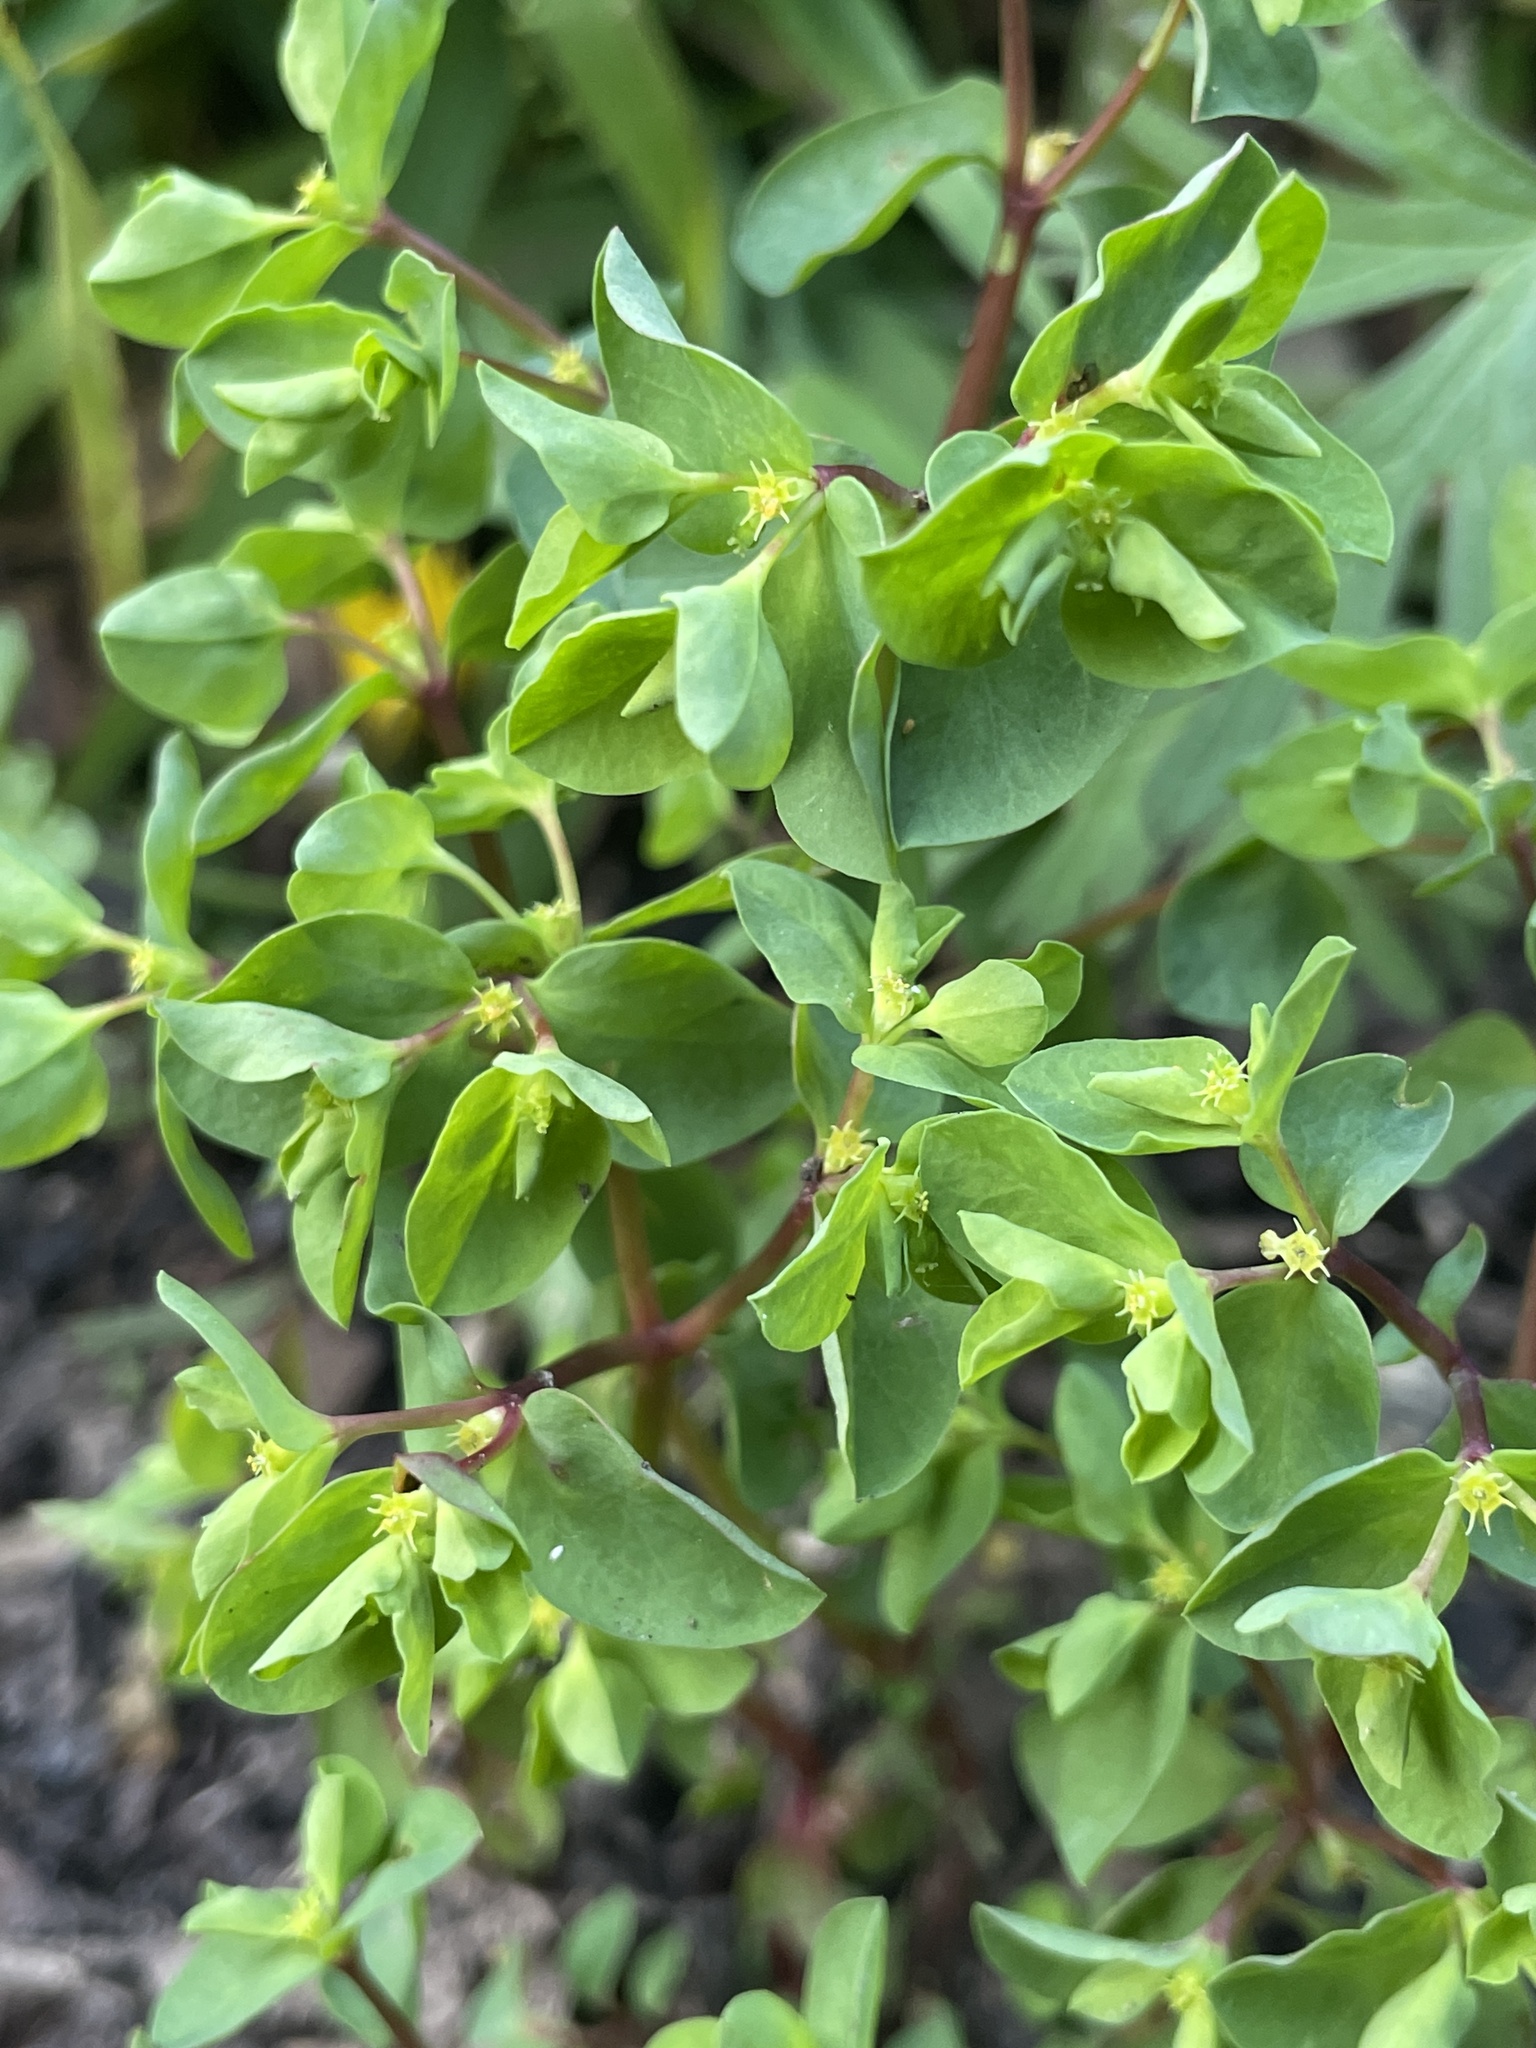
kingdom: Plantae
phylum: Tracheophyta
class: Magnoliopsida
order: Malpighiales
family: Euphorbiaceae
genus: Euphorbia
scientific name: Euphorbia peplus
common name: Petty spurge
